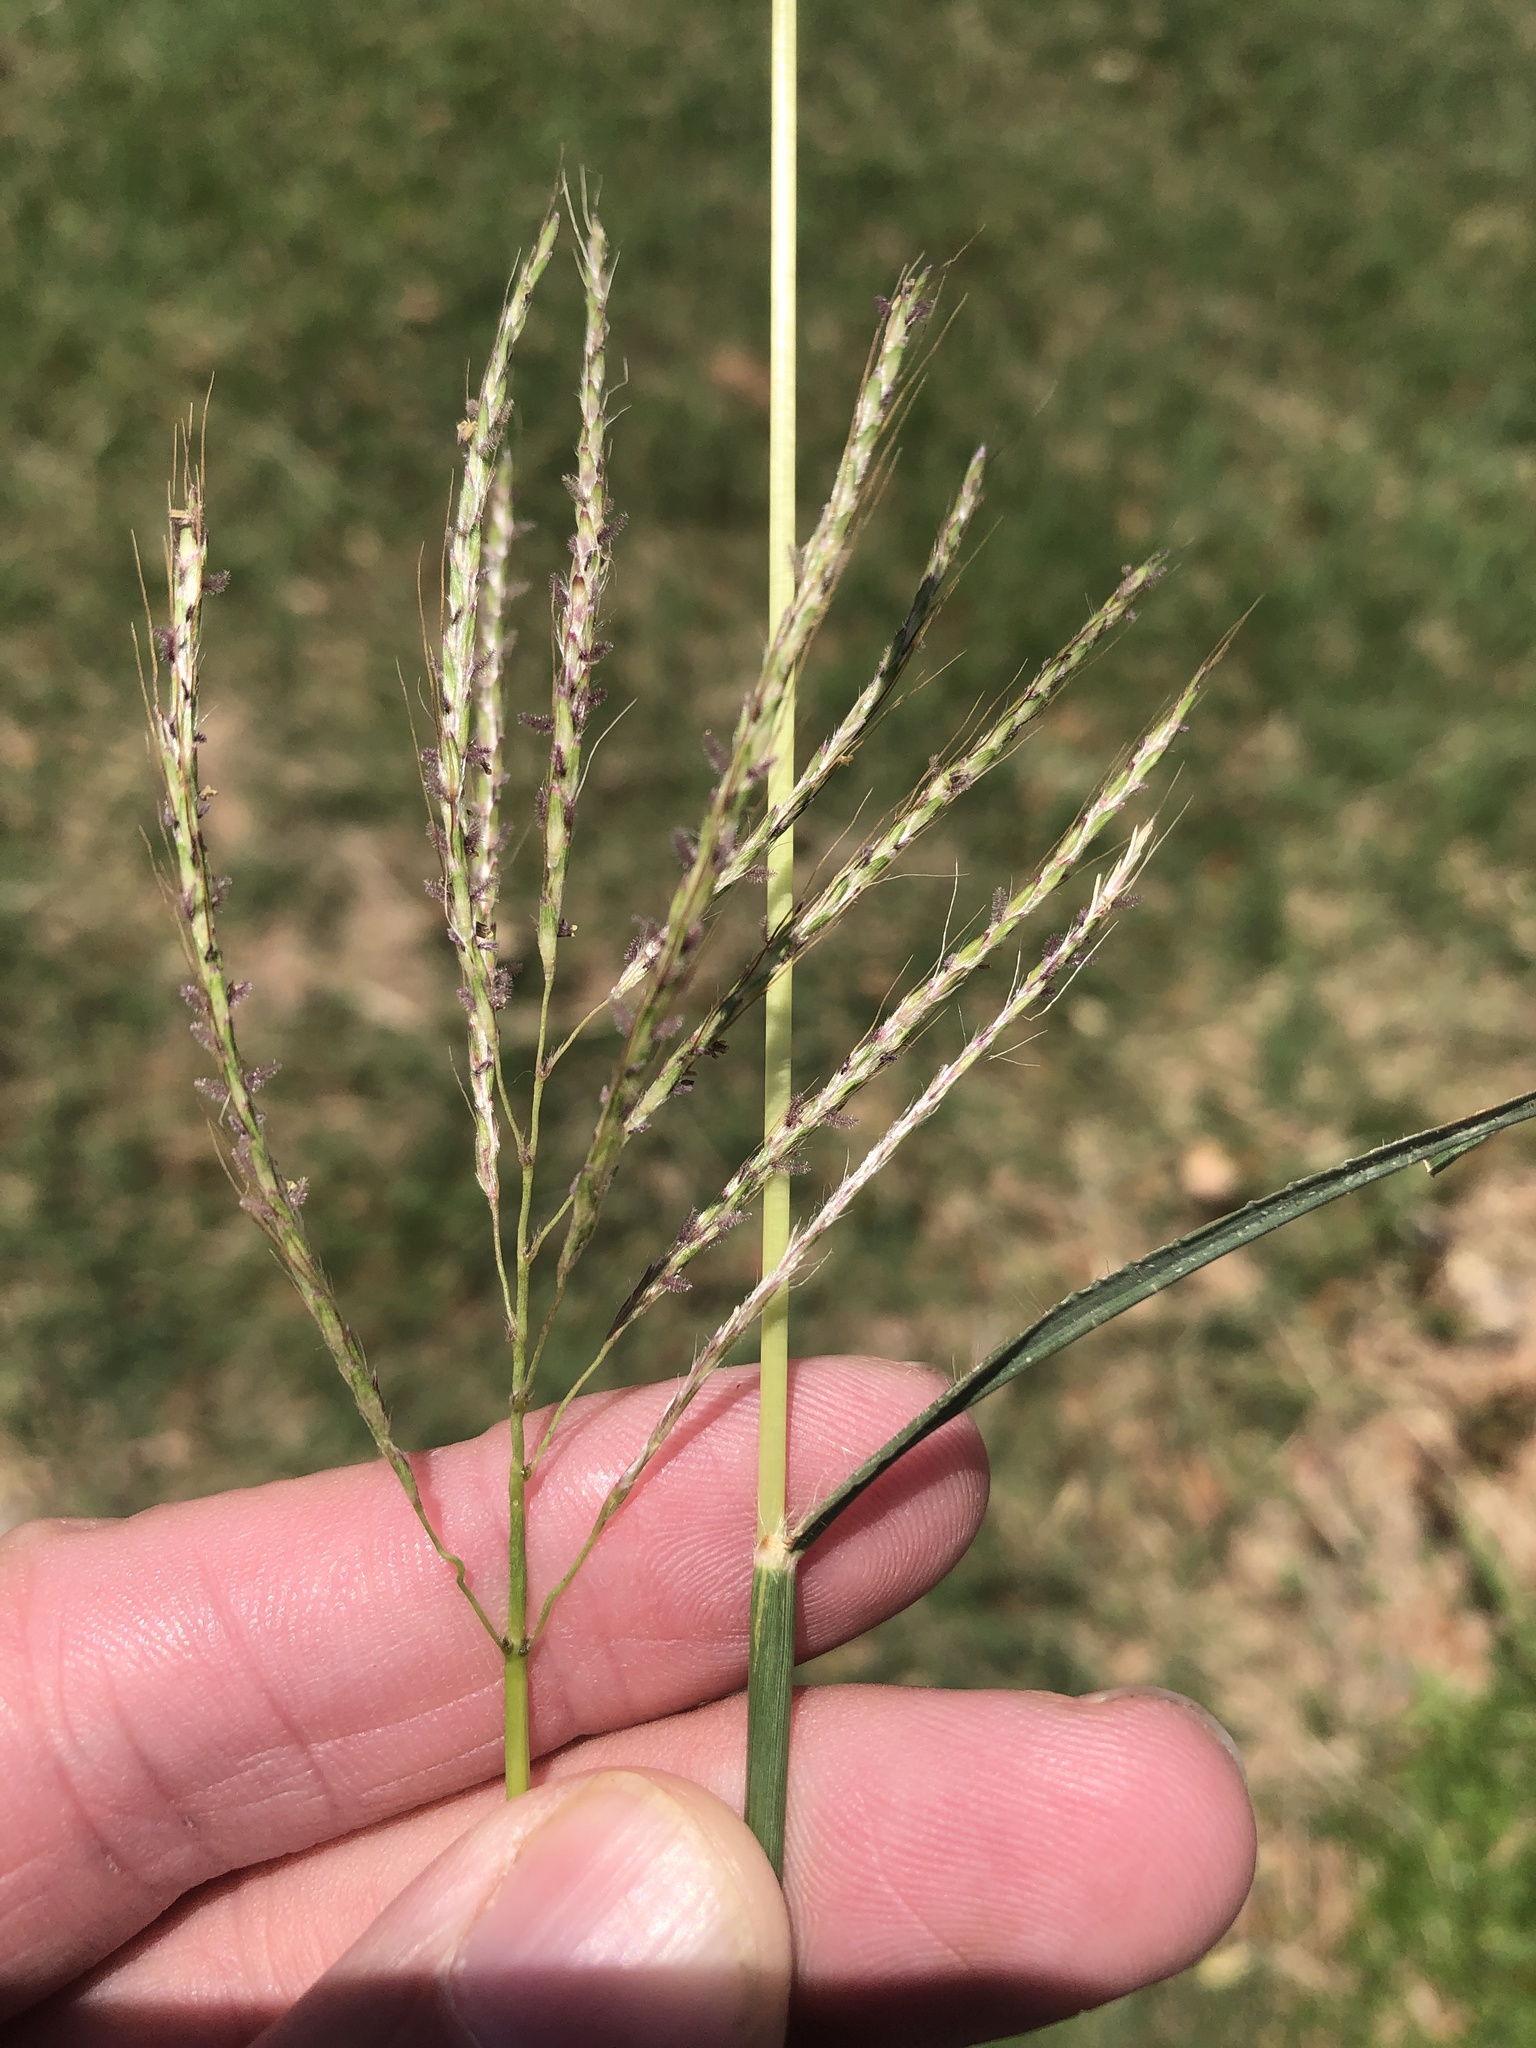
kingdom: Plantae
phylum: Tracheophyta
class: Liliopsida
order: Poales
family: Poaceae
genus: Bothriochloa
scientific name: Bothriochloa ischaemum
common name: Yellow bluestem
